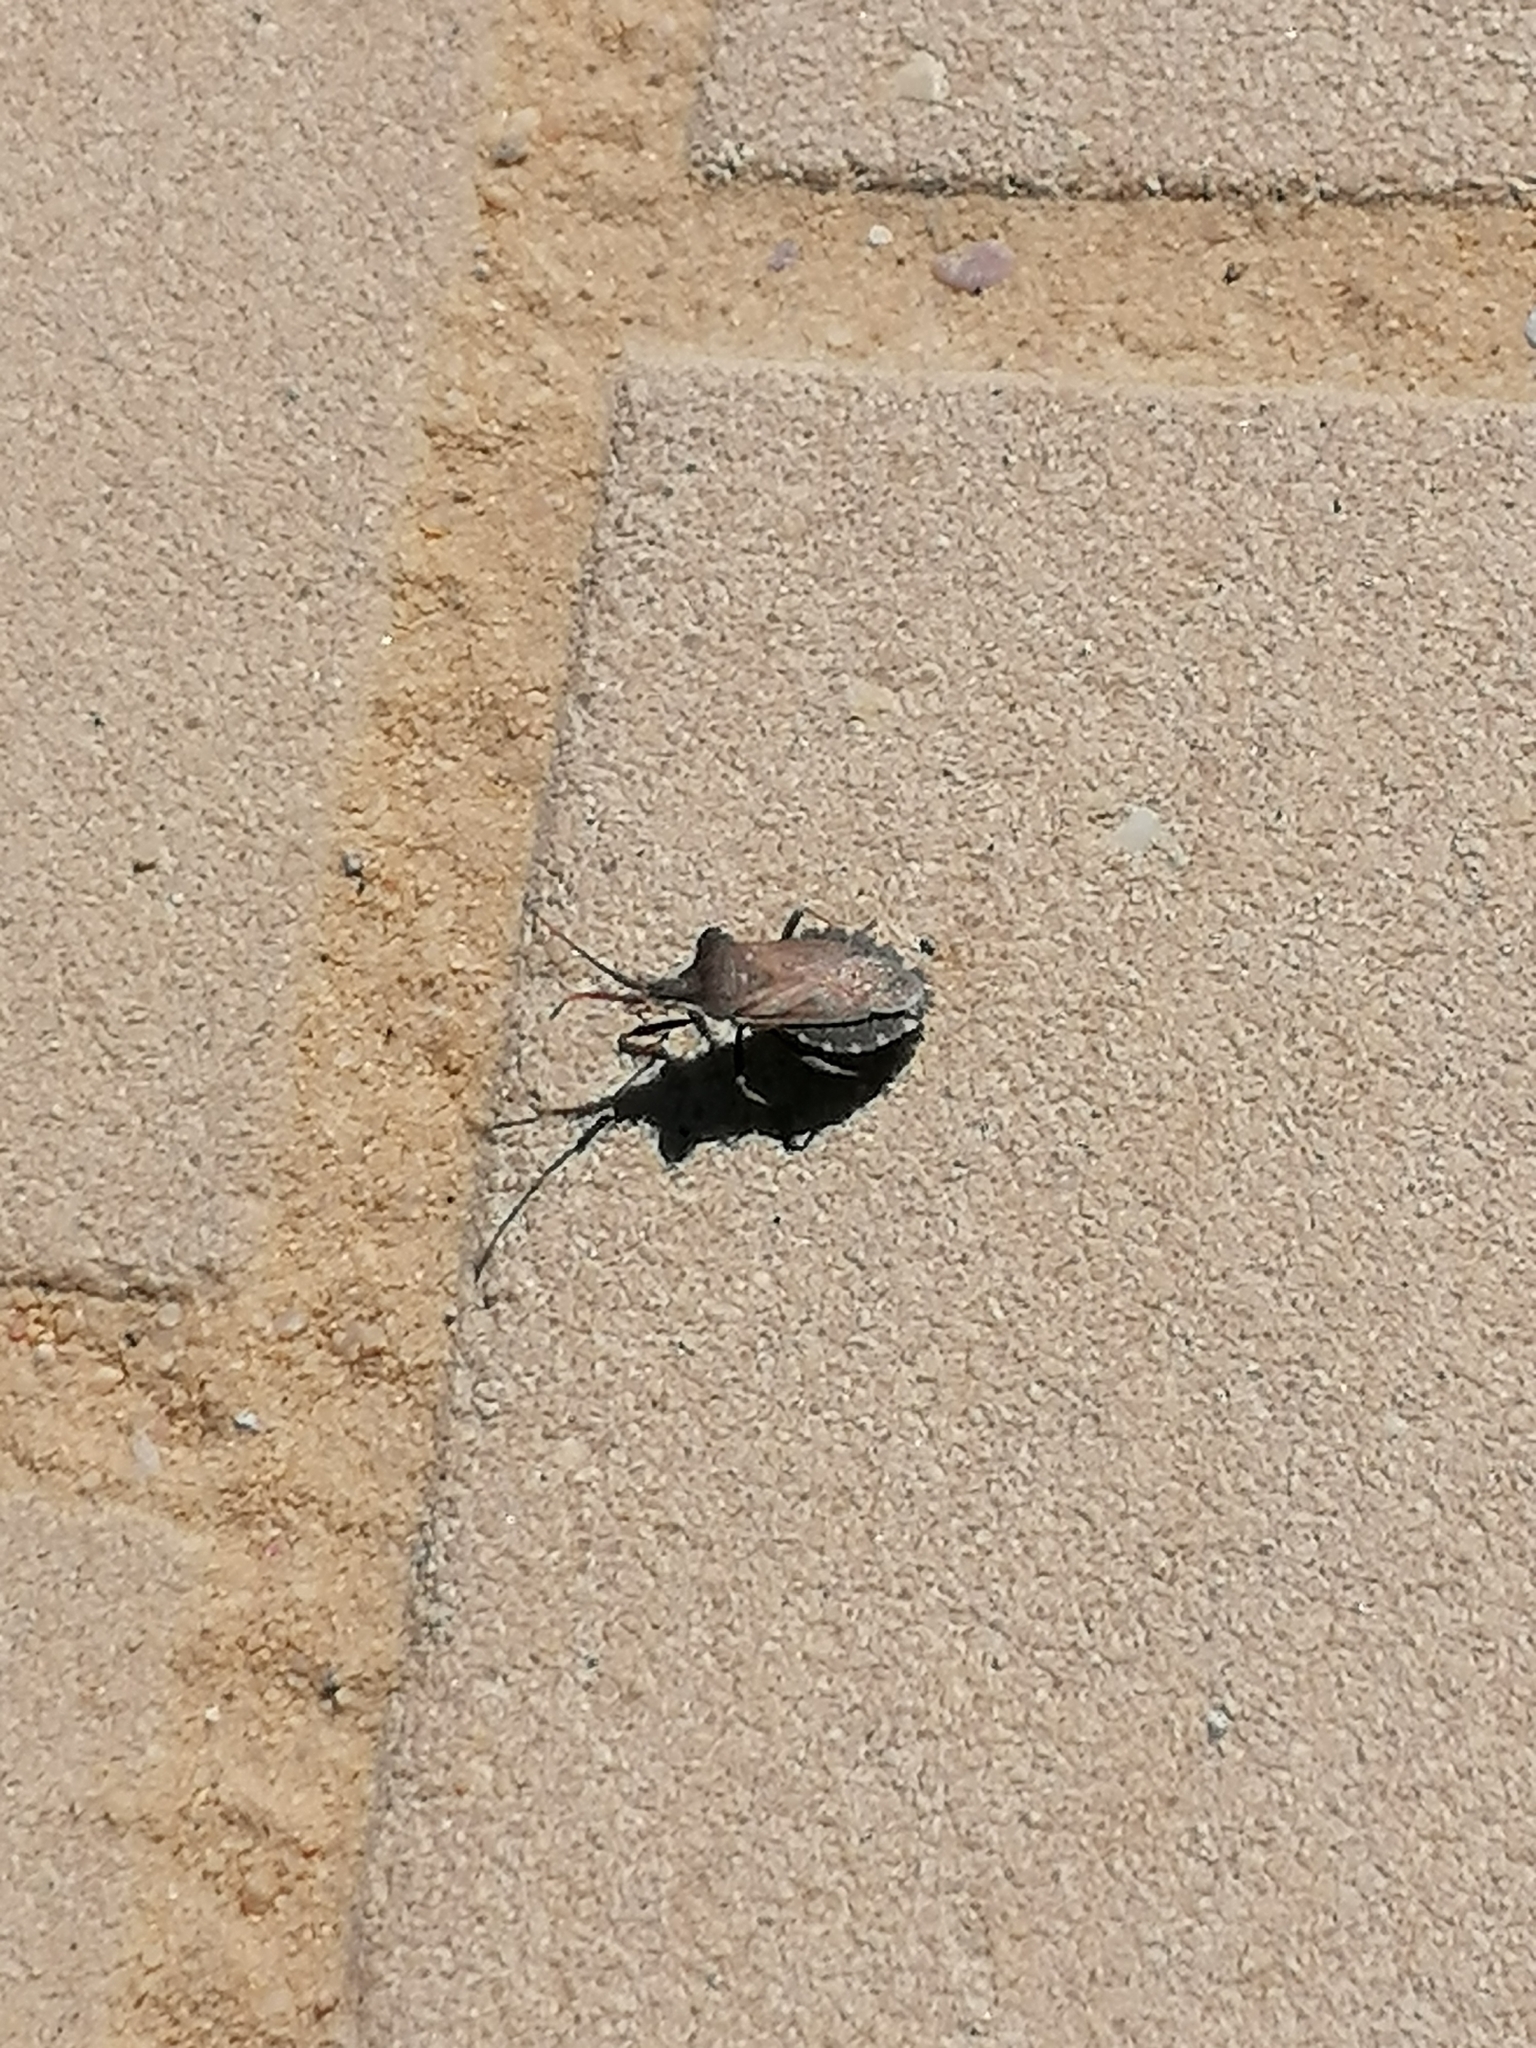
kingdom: Animalia
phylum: Arthropoda
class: Insecta
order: Hemiptera
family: Coreidae
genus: Enoplops
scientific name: Enoplops
